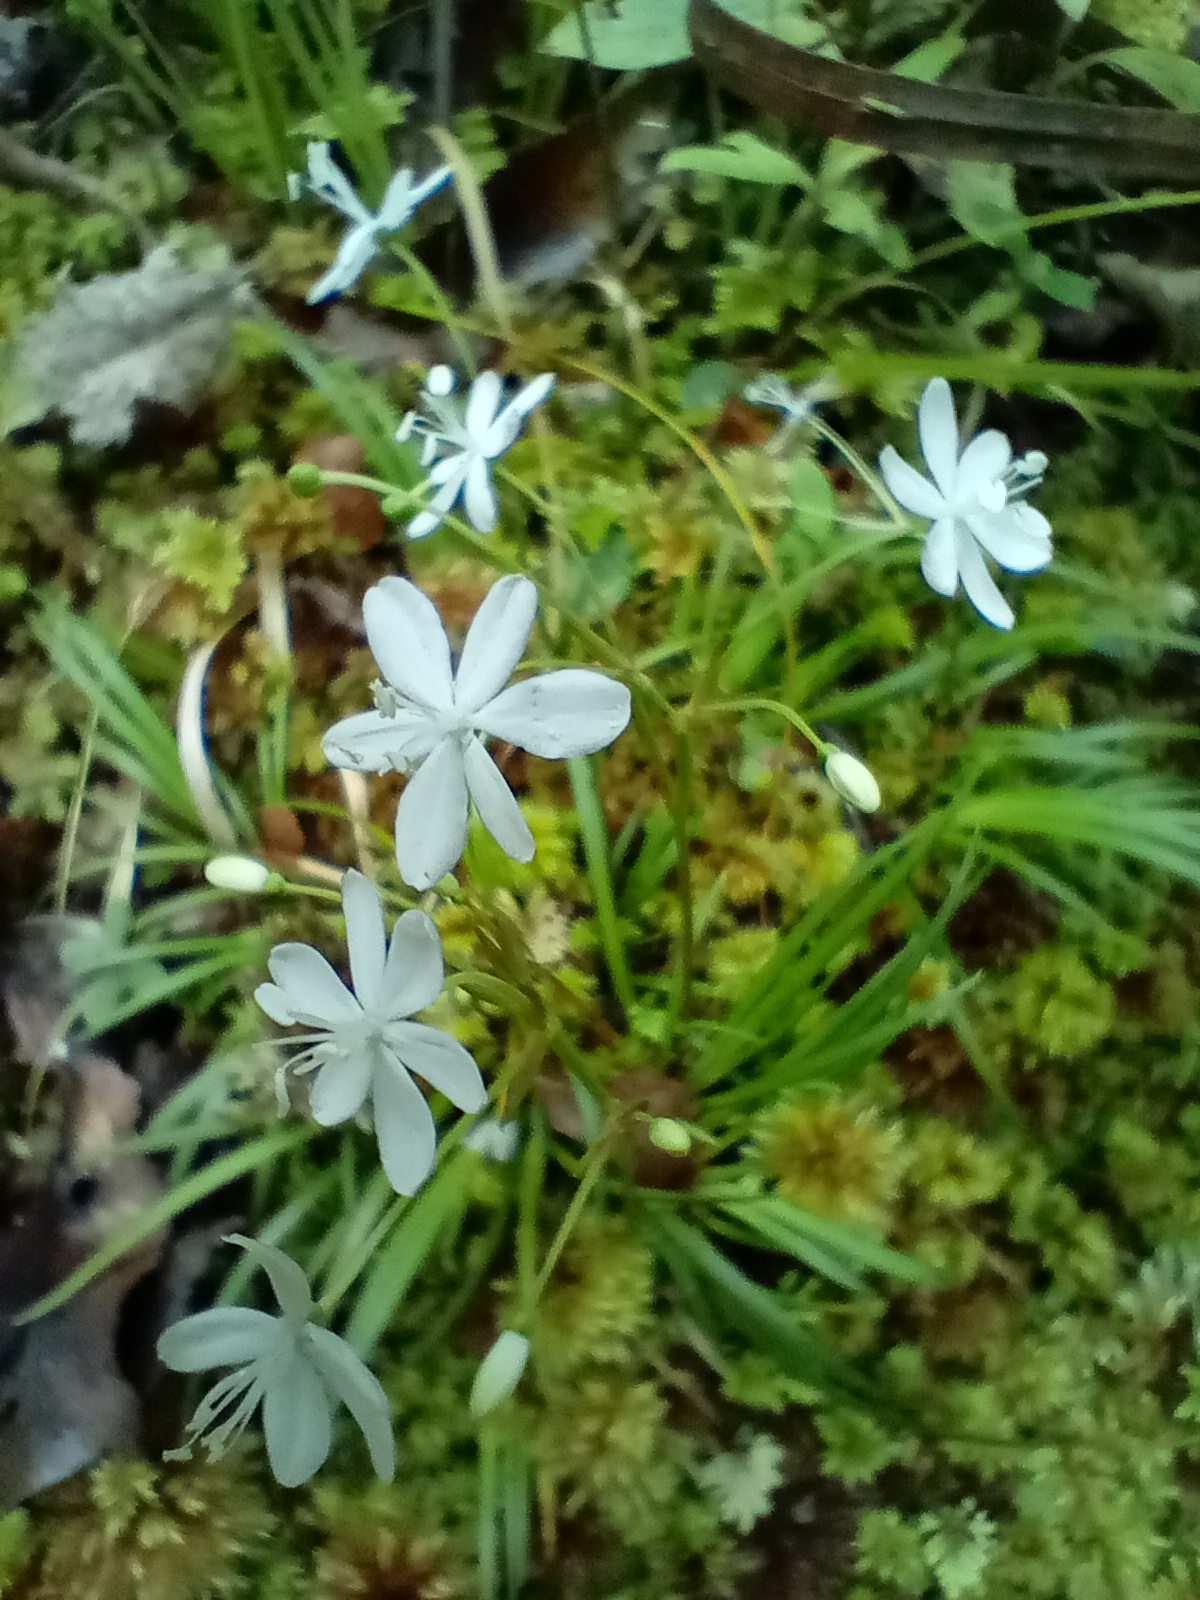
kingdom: Plantae
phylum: Tracheophyta
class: Liliopsida
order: Asparagales
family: Iridaceae
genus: Libertia
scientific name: Libertia micrantha
